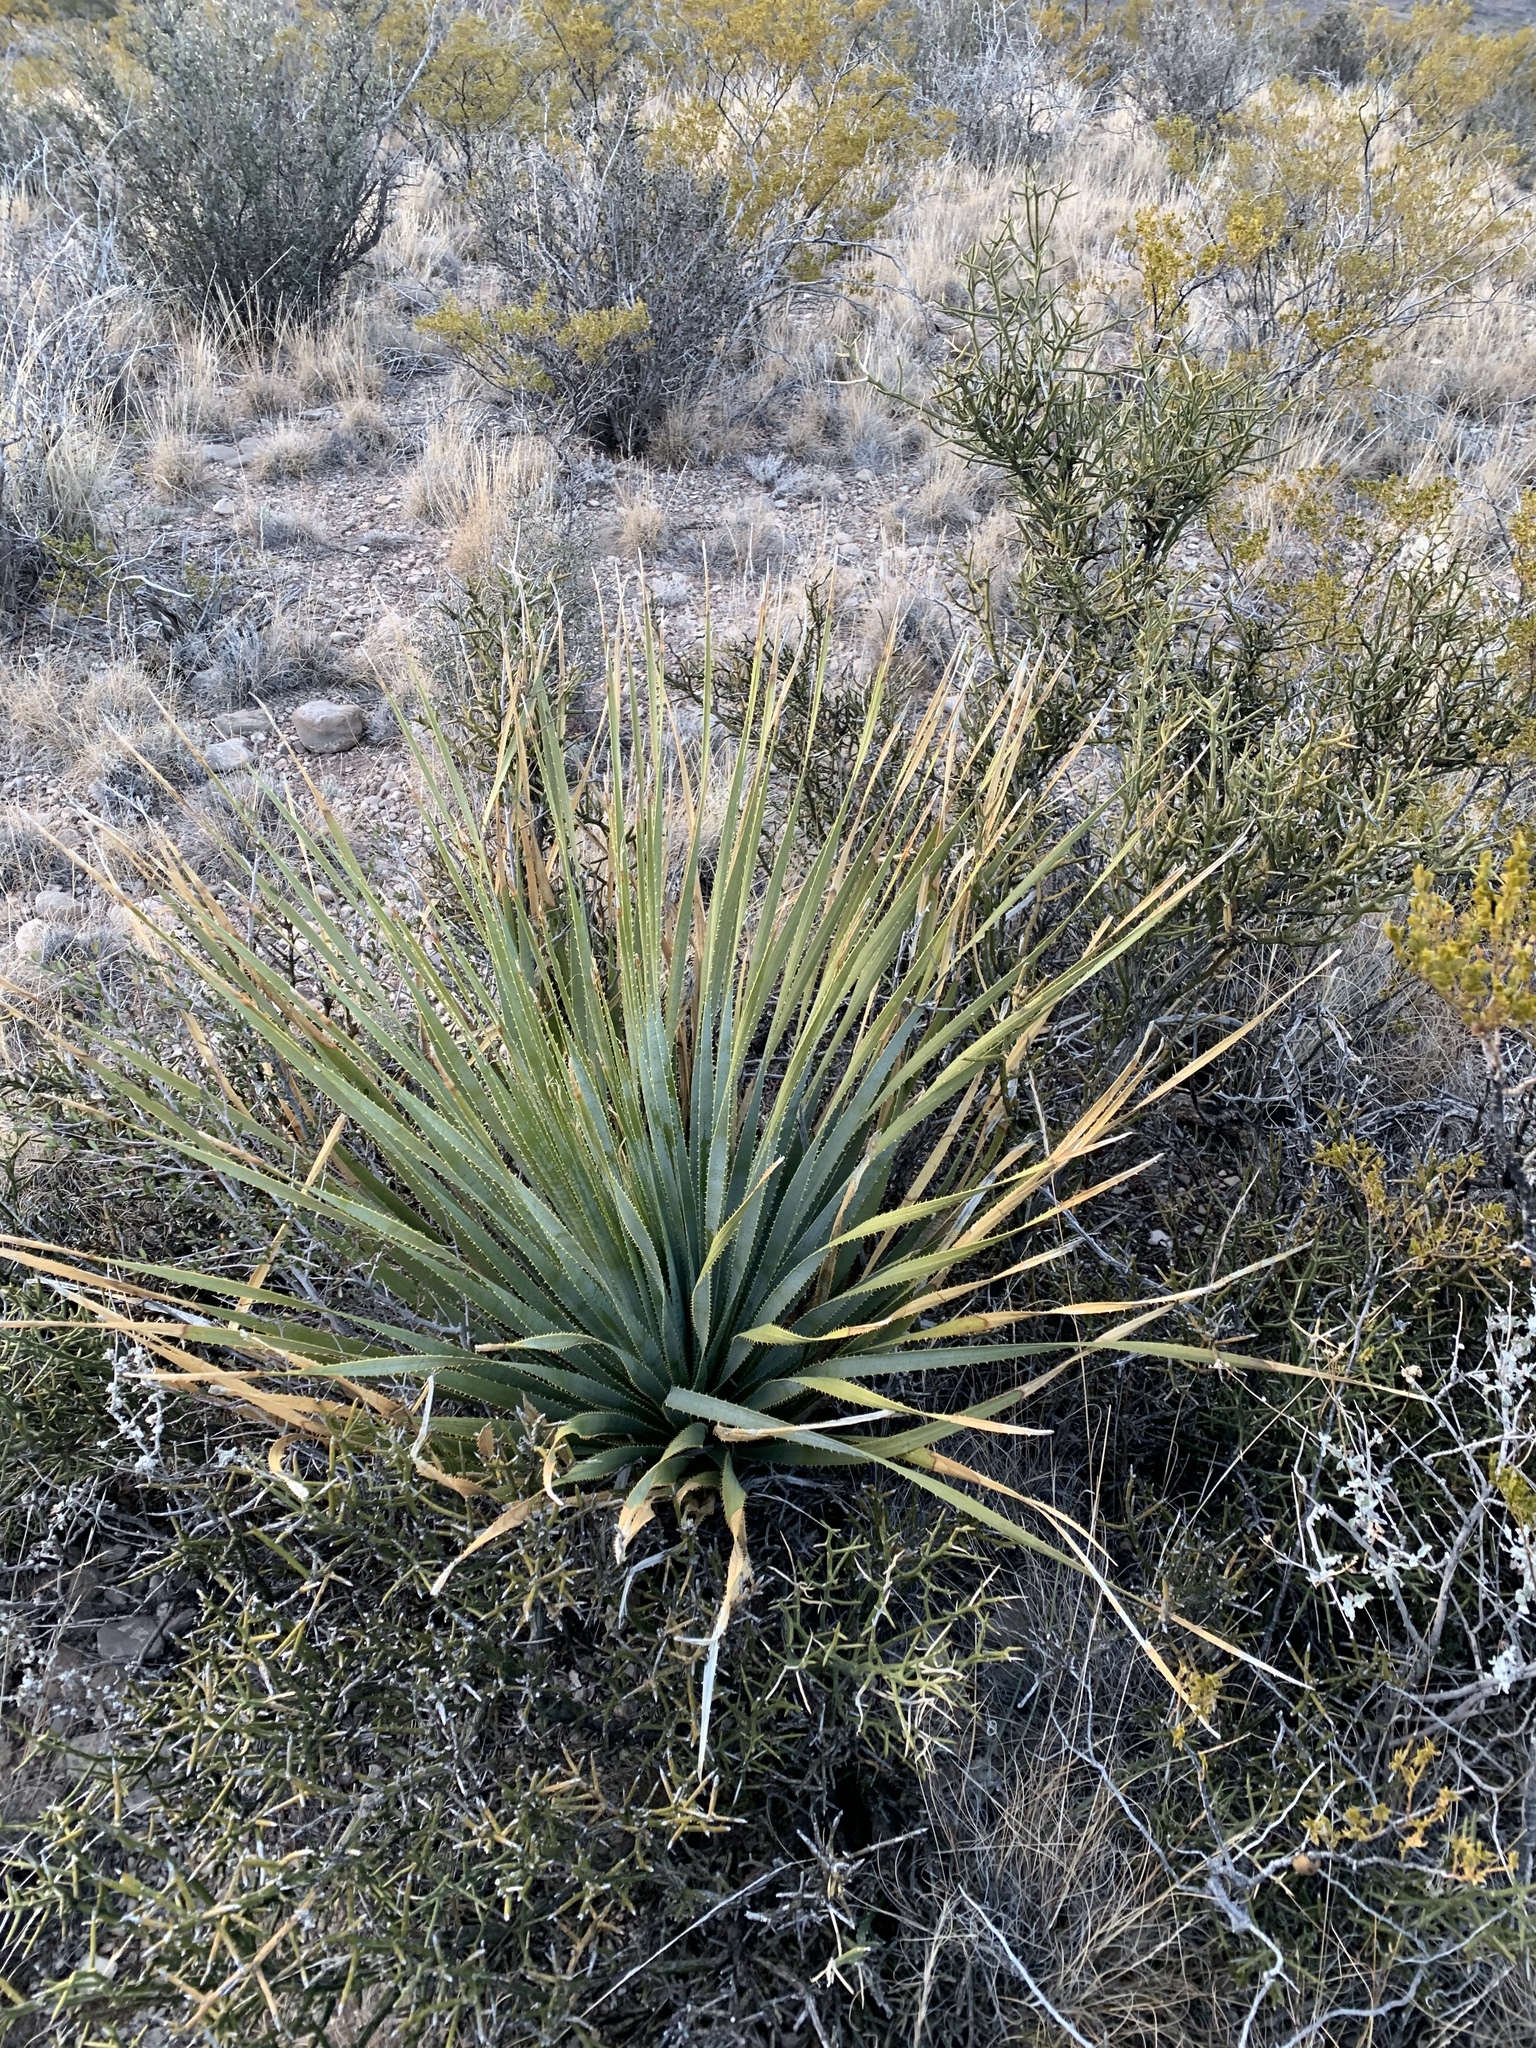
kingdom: Plantae
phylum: Tracheophyta
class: Liliopsida
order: Asparagales
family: Asparagaceae
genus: Dasylirion
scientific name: Dasylirion wheeleri
